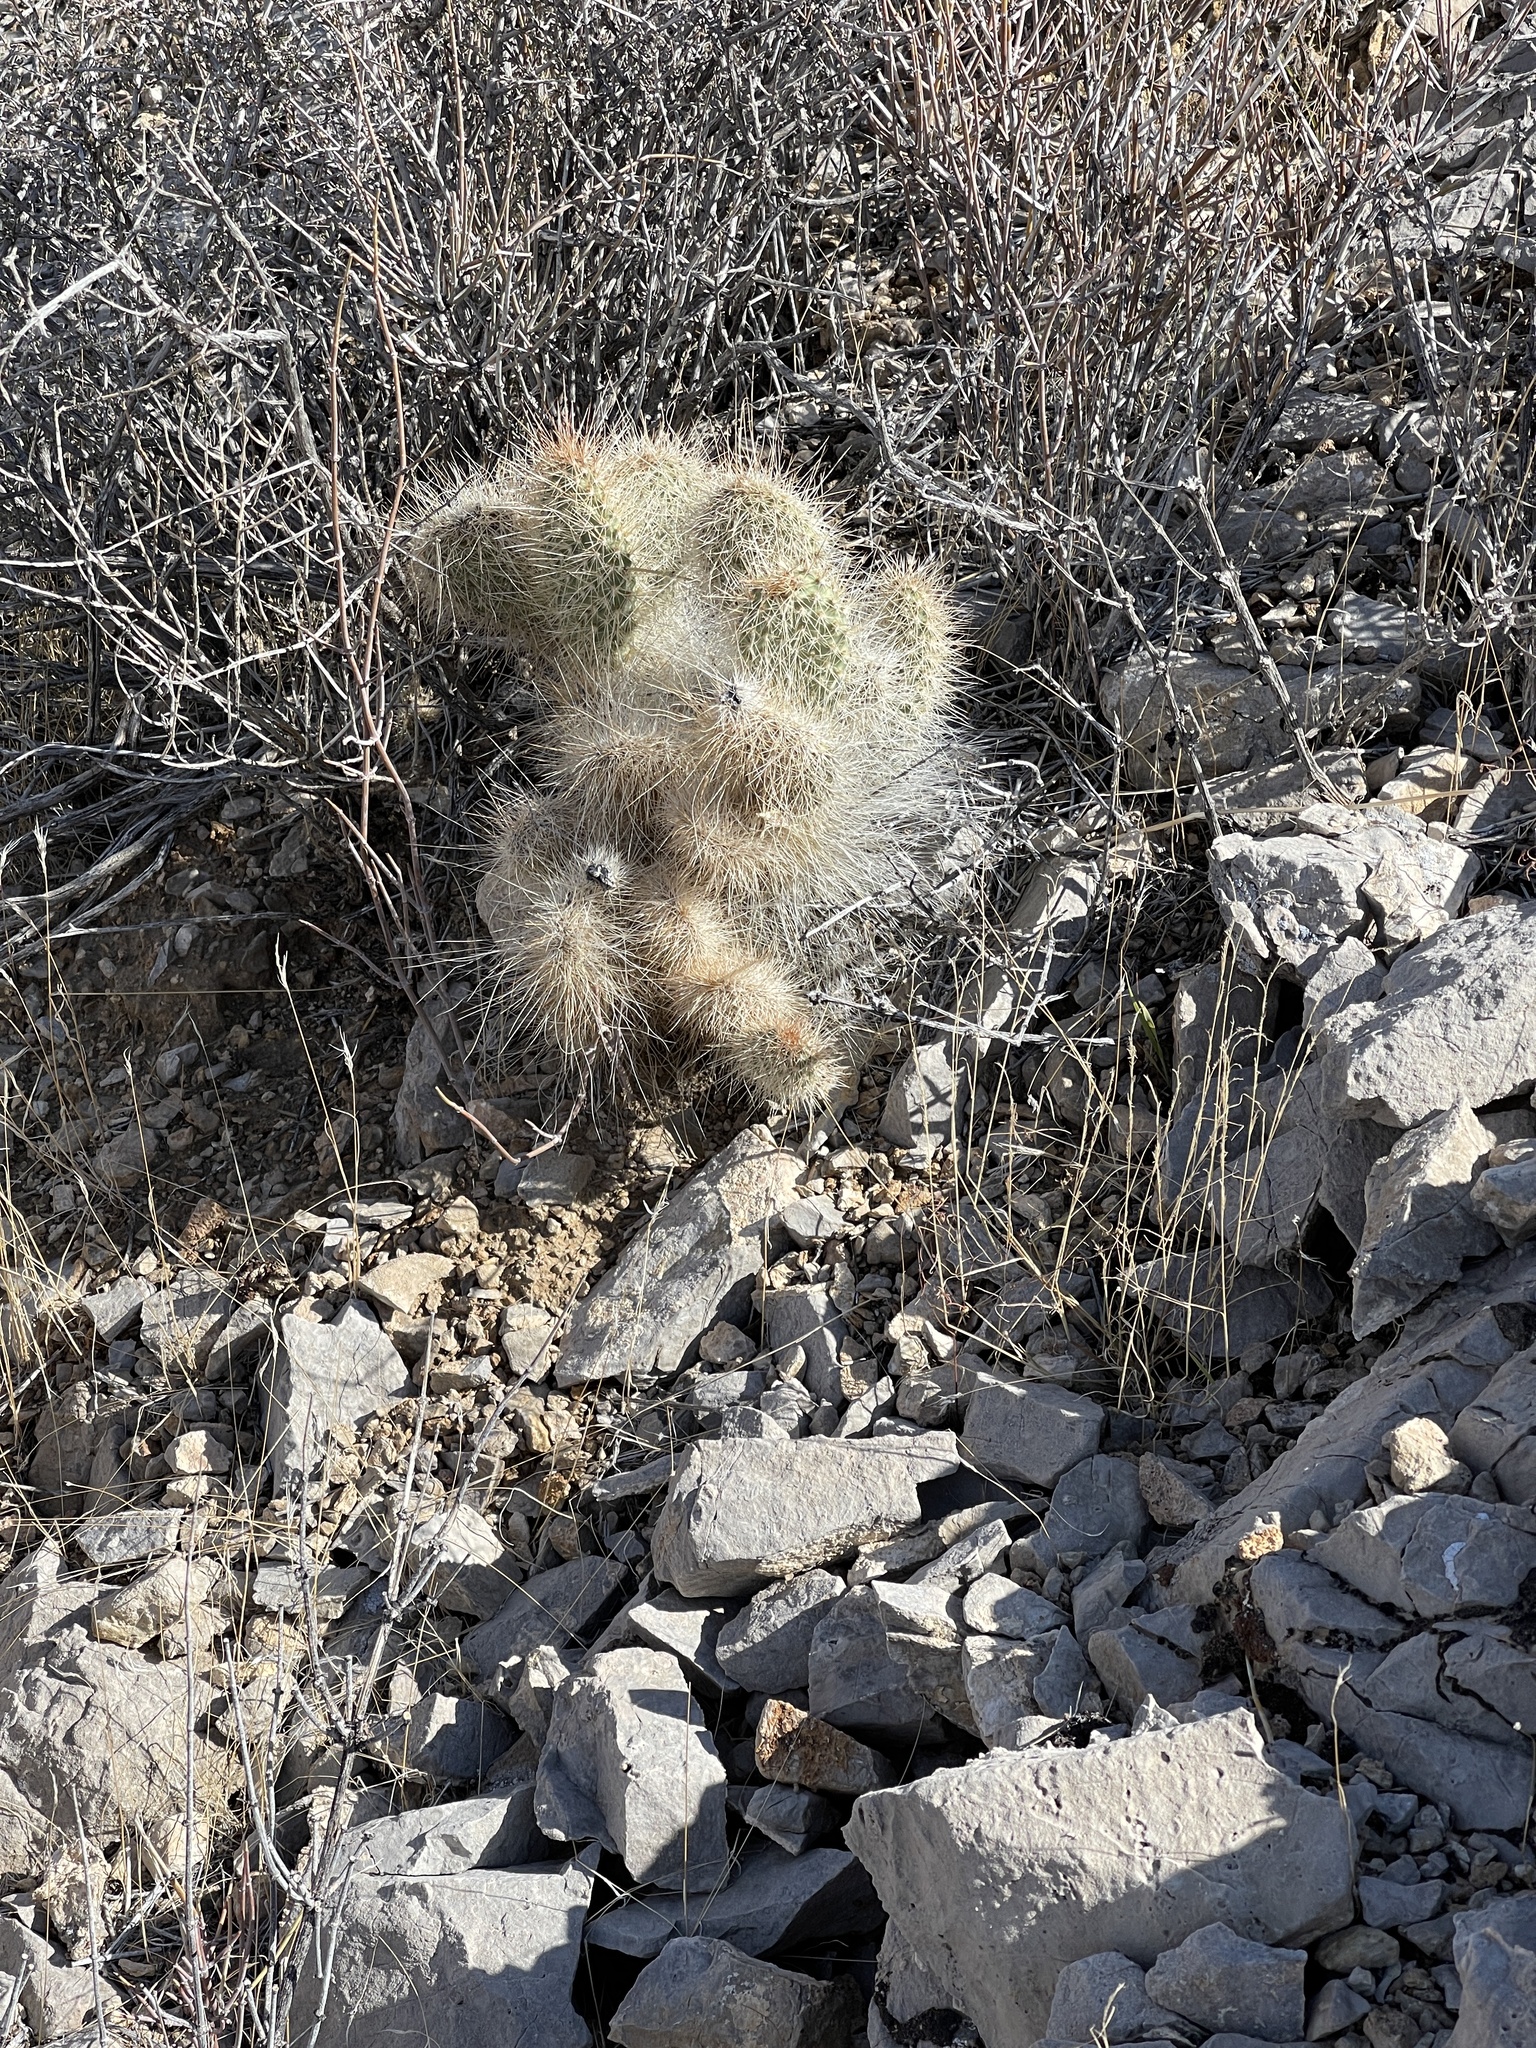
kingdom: Plantae
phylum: Tracheophyta
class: Magnoliopsida
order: Caryophyllales
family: Cactaceae
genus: Opuntia
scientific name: Opuntia polyacantha
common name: Plains prickly-pear
